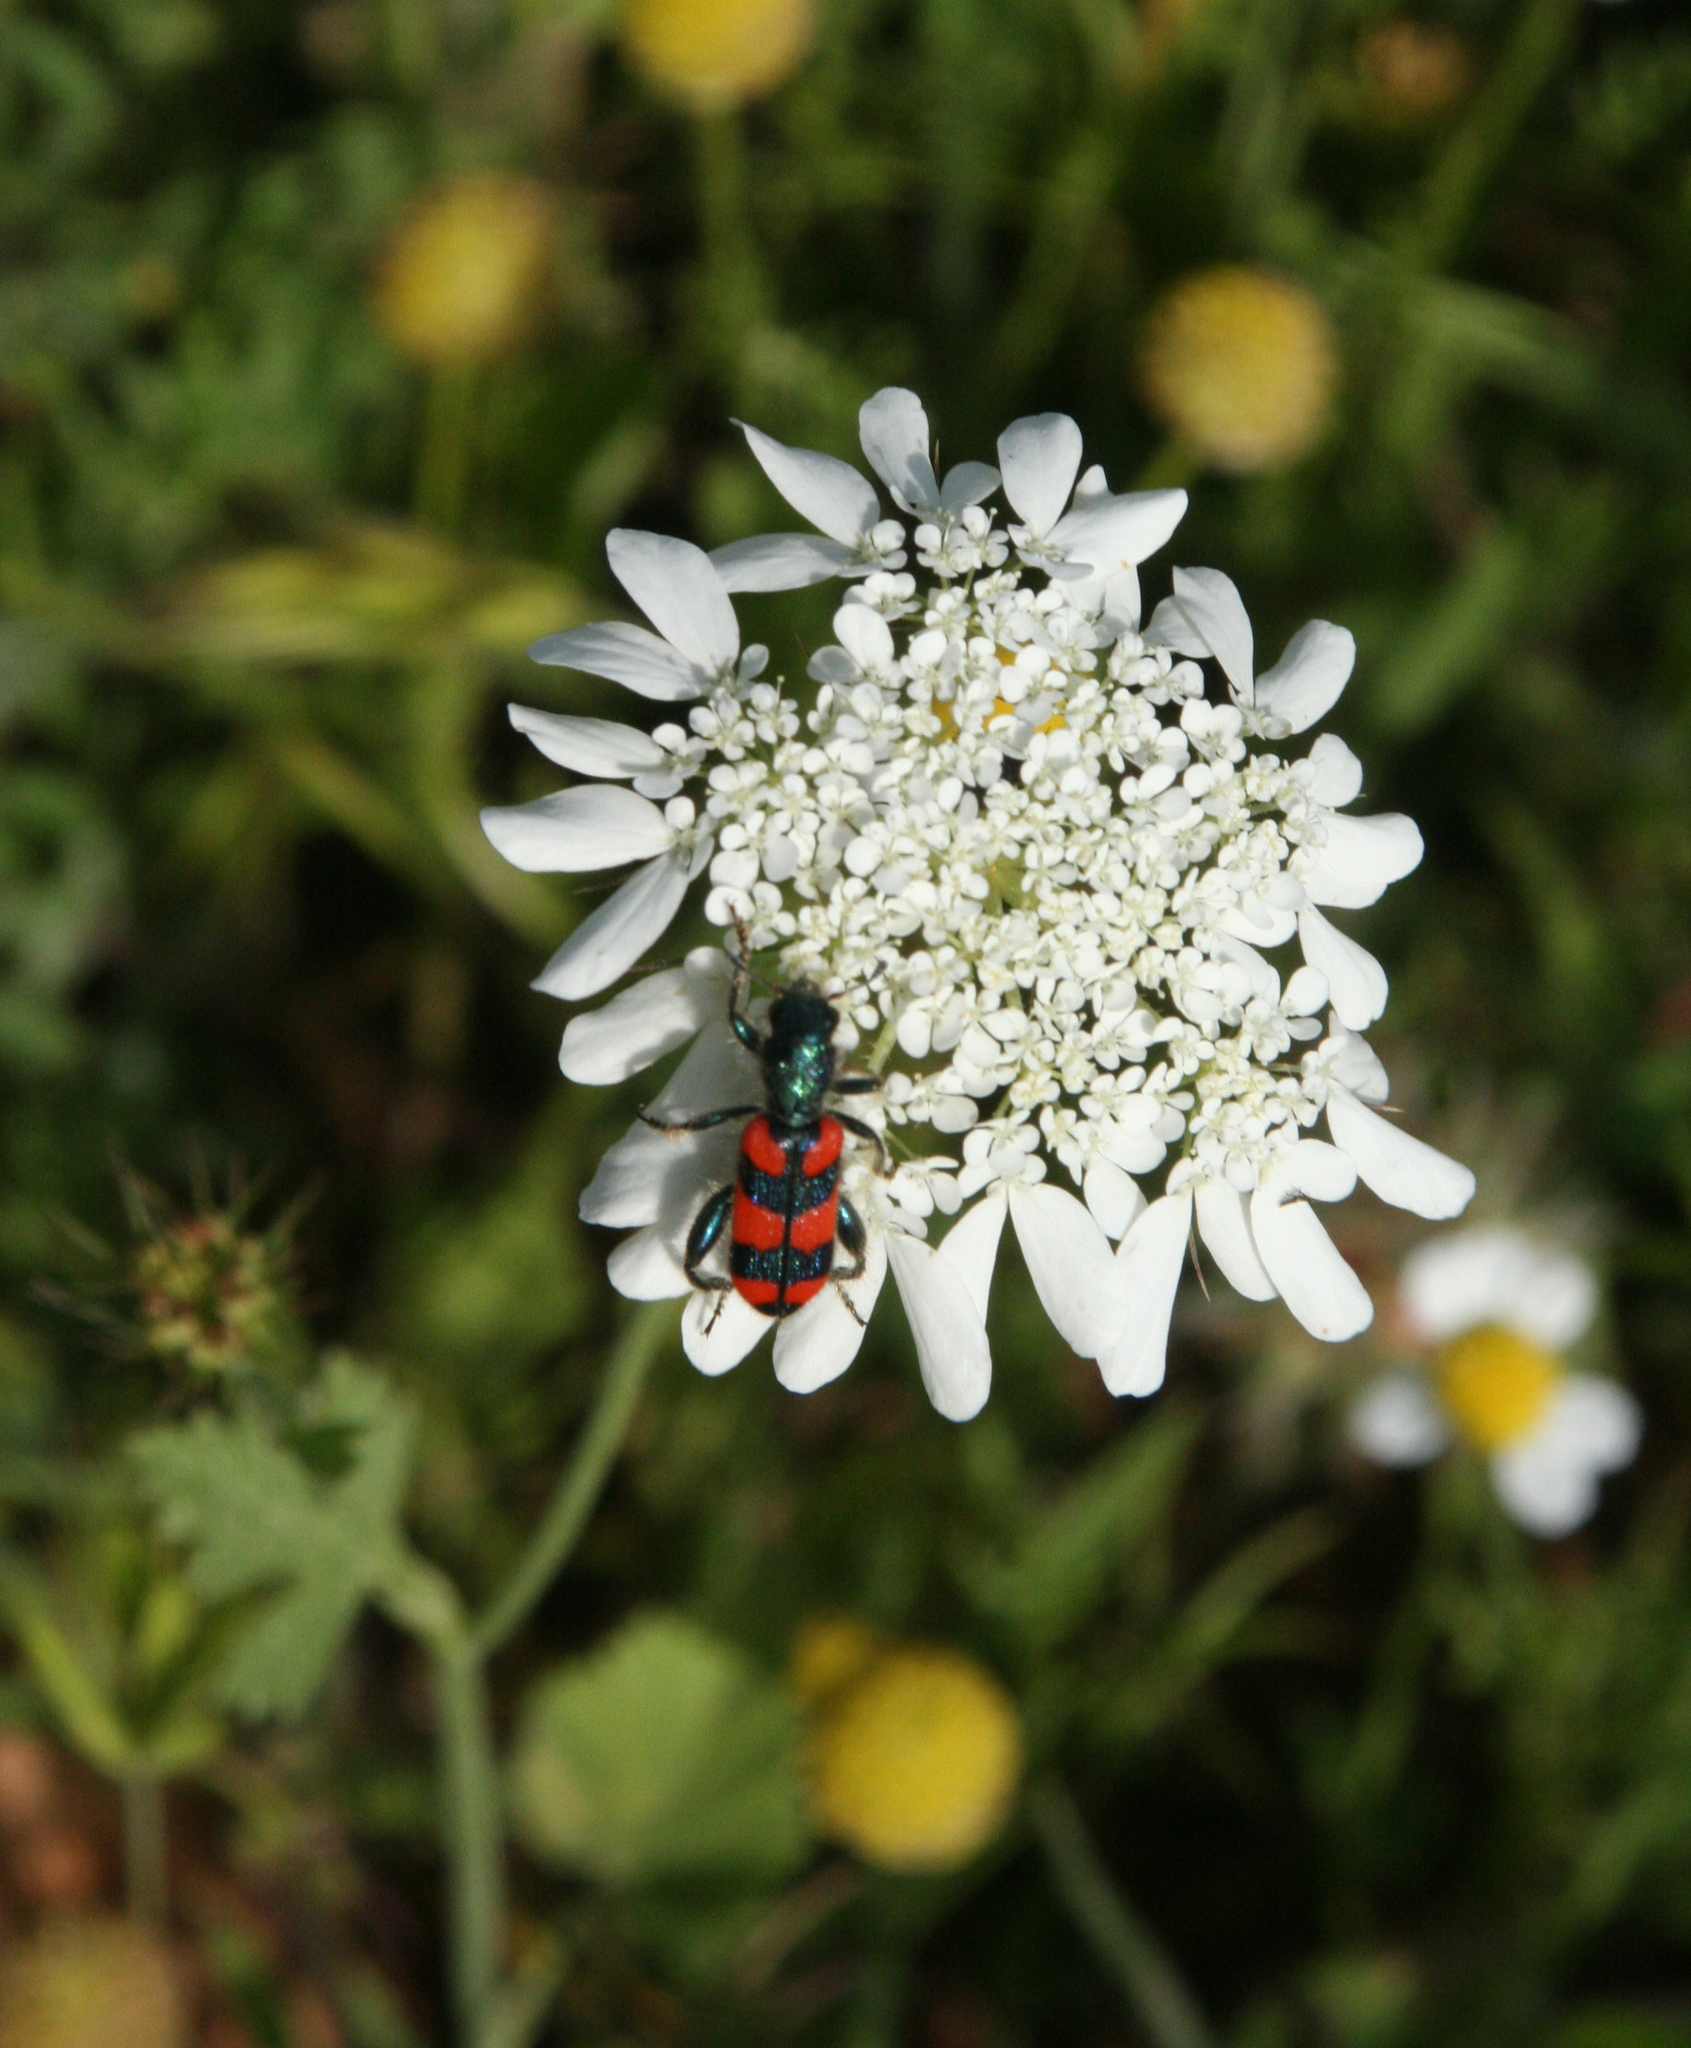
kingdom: Plantae
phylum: Tracheophyta
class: Magnoliopsida
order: Apiales
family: Apiaceae
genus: Artedia
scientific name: Artedia squamata
